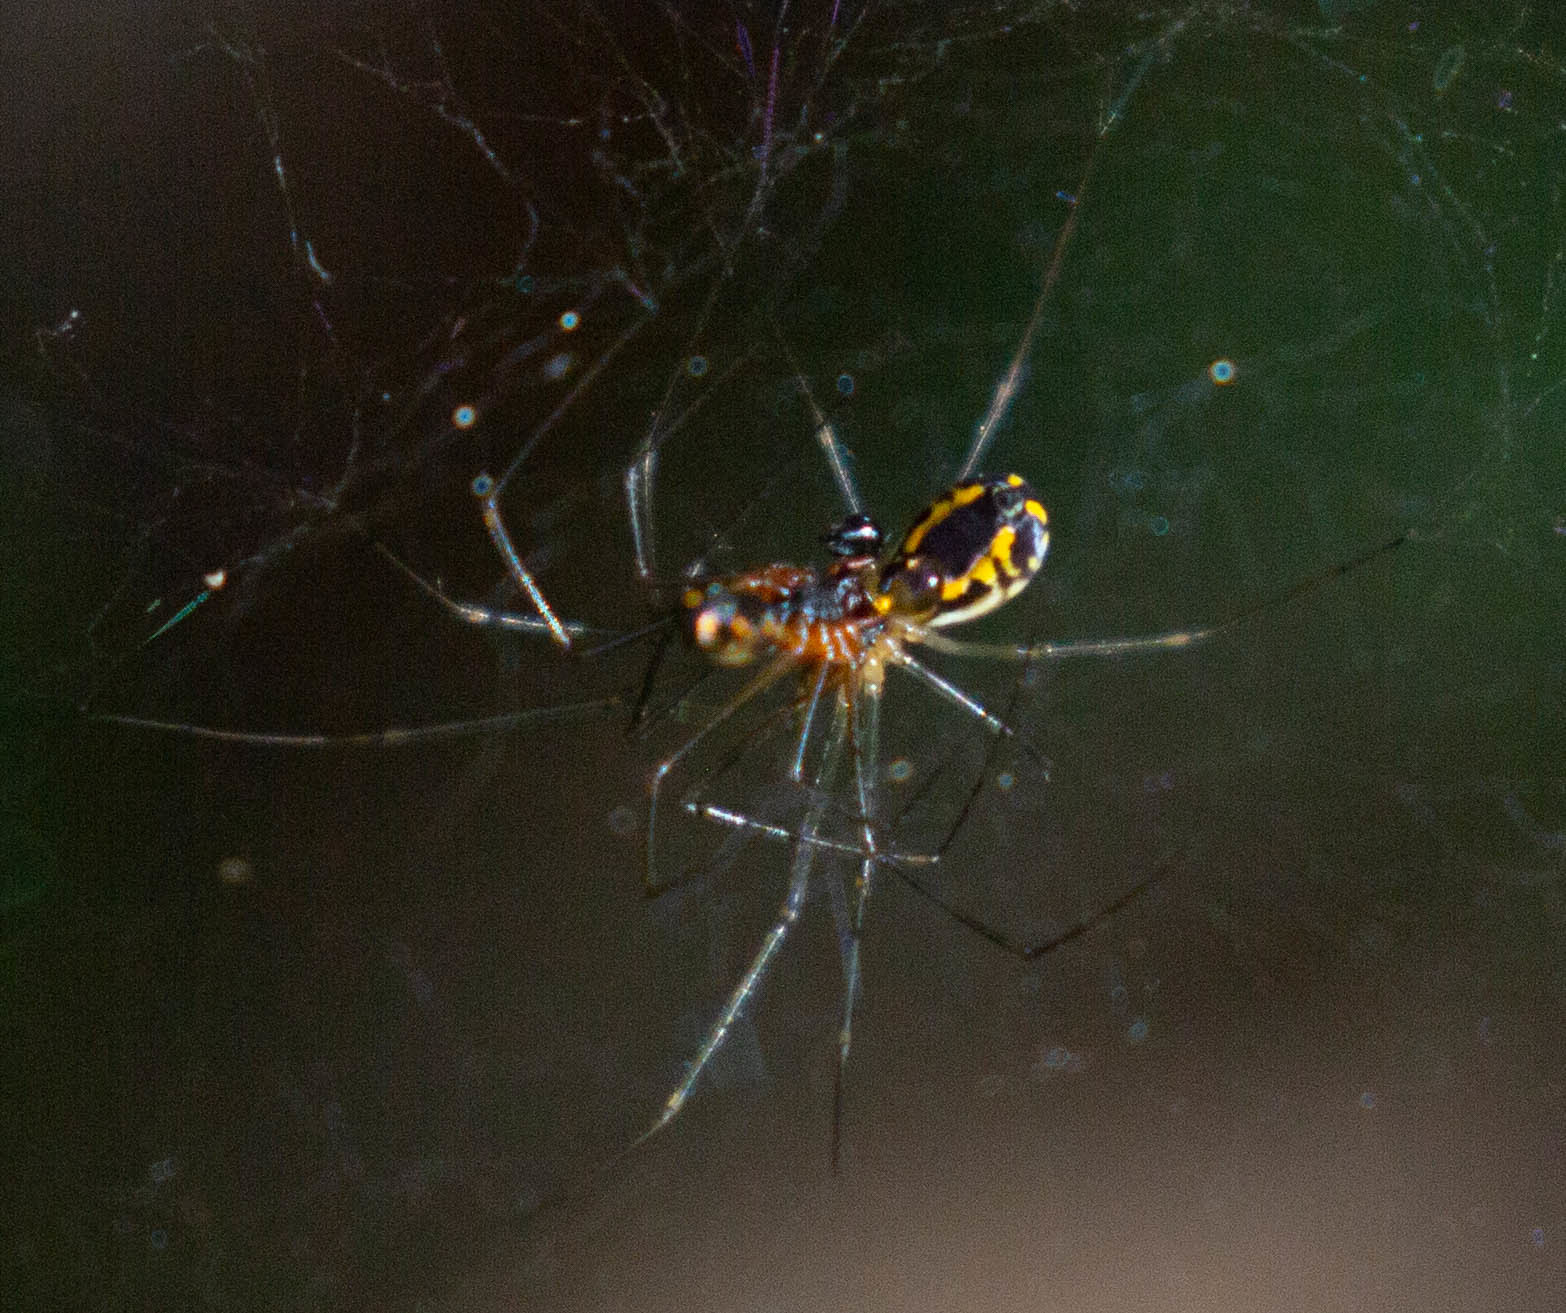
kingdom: Animalia
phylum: Arthropoda
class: Arachnida
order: Araneae
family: Linyphiidae
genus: Neriene
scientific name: Neriene radiata
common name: Filmy dome spider
